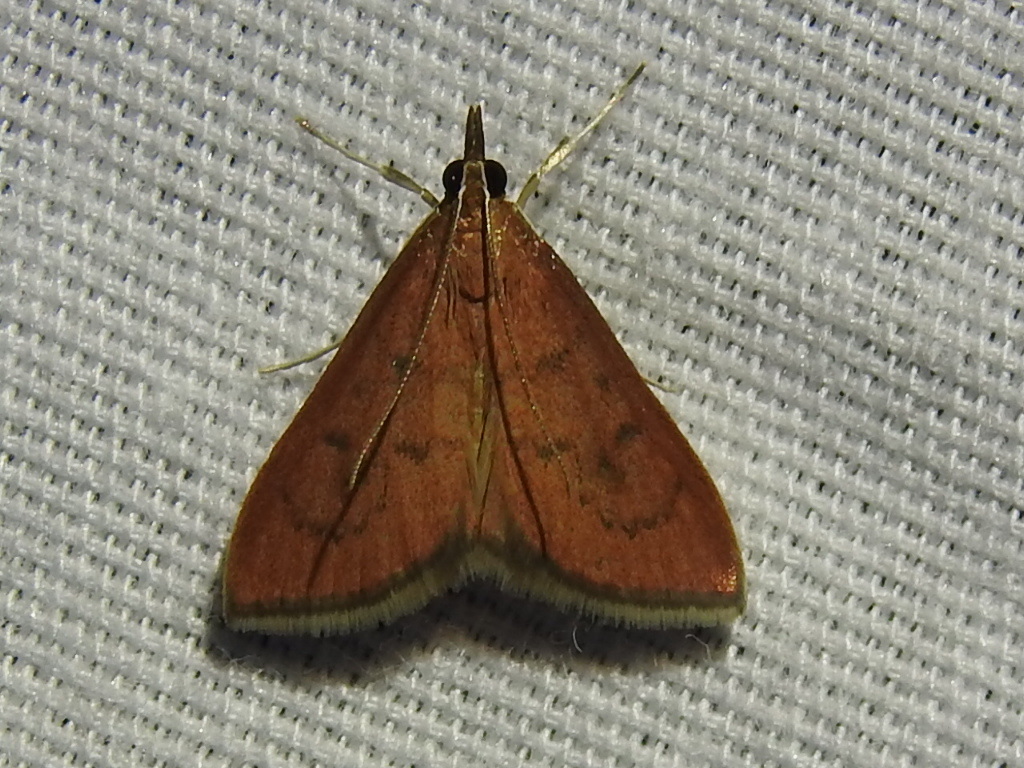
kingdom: Animalia
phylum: Arthropoda
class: Insecta
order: Lepidoptera
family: Crambidae
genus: Oenobotys
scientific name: Oenobotys vinotinctalis
